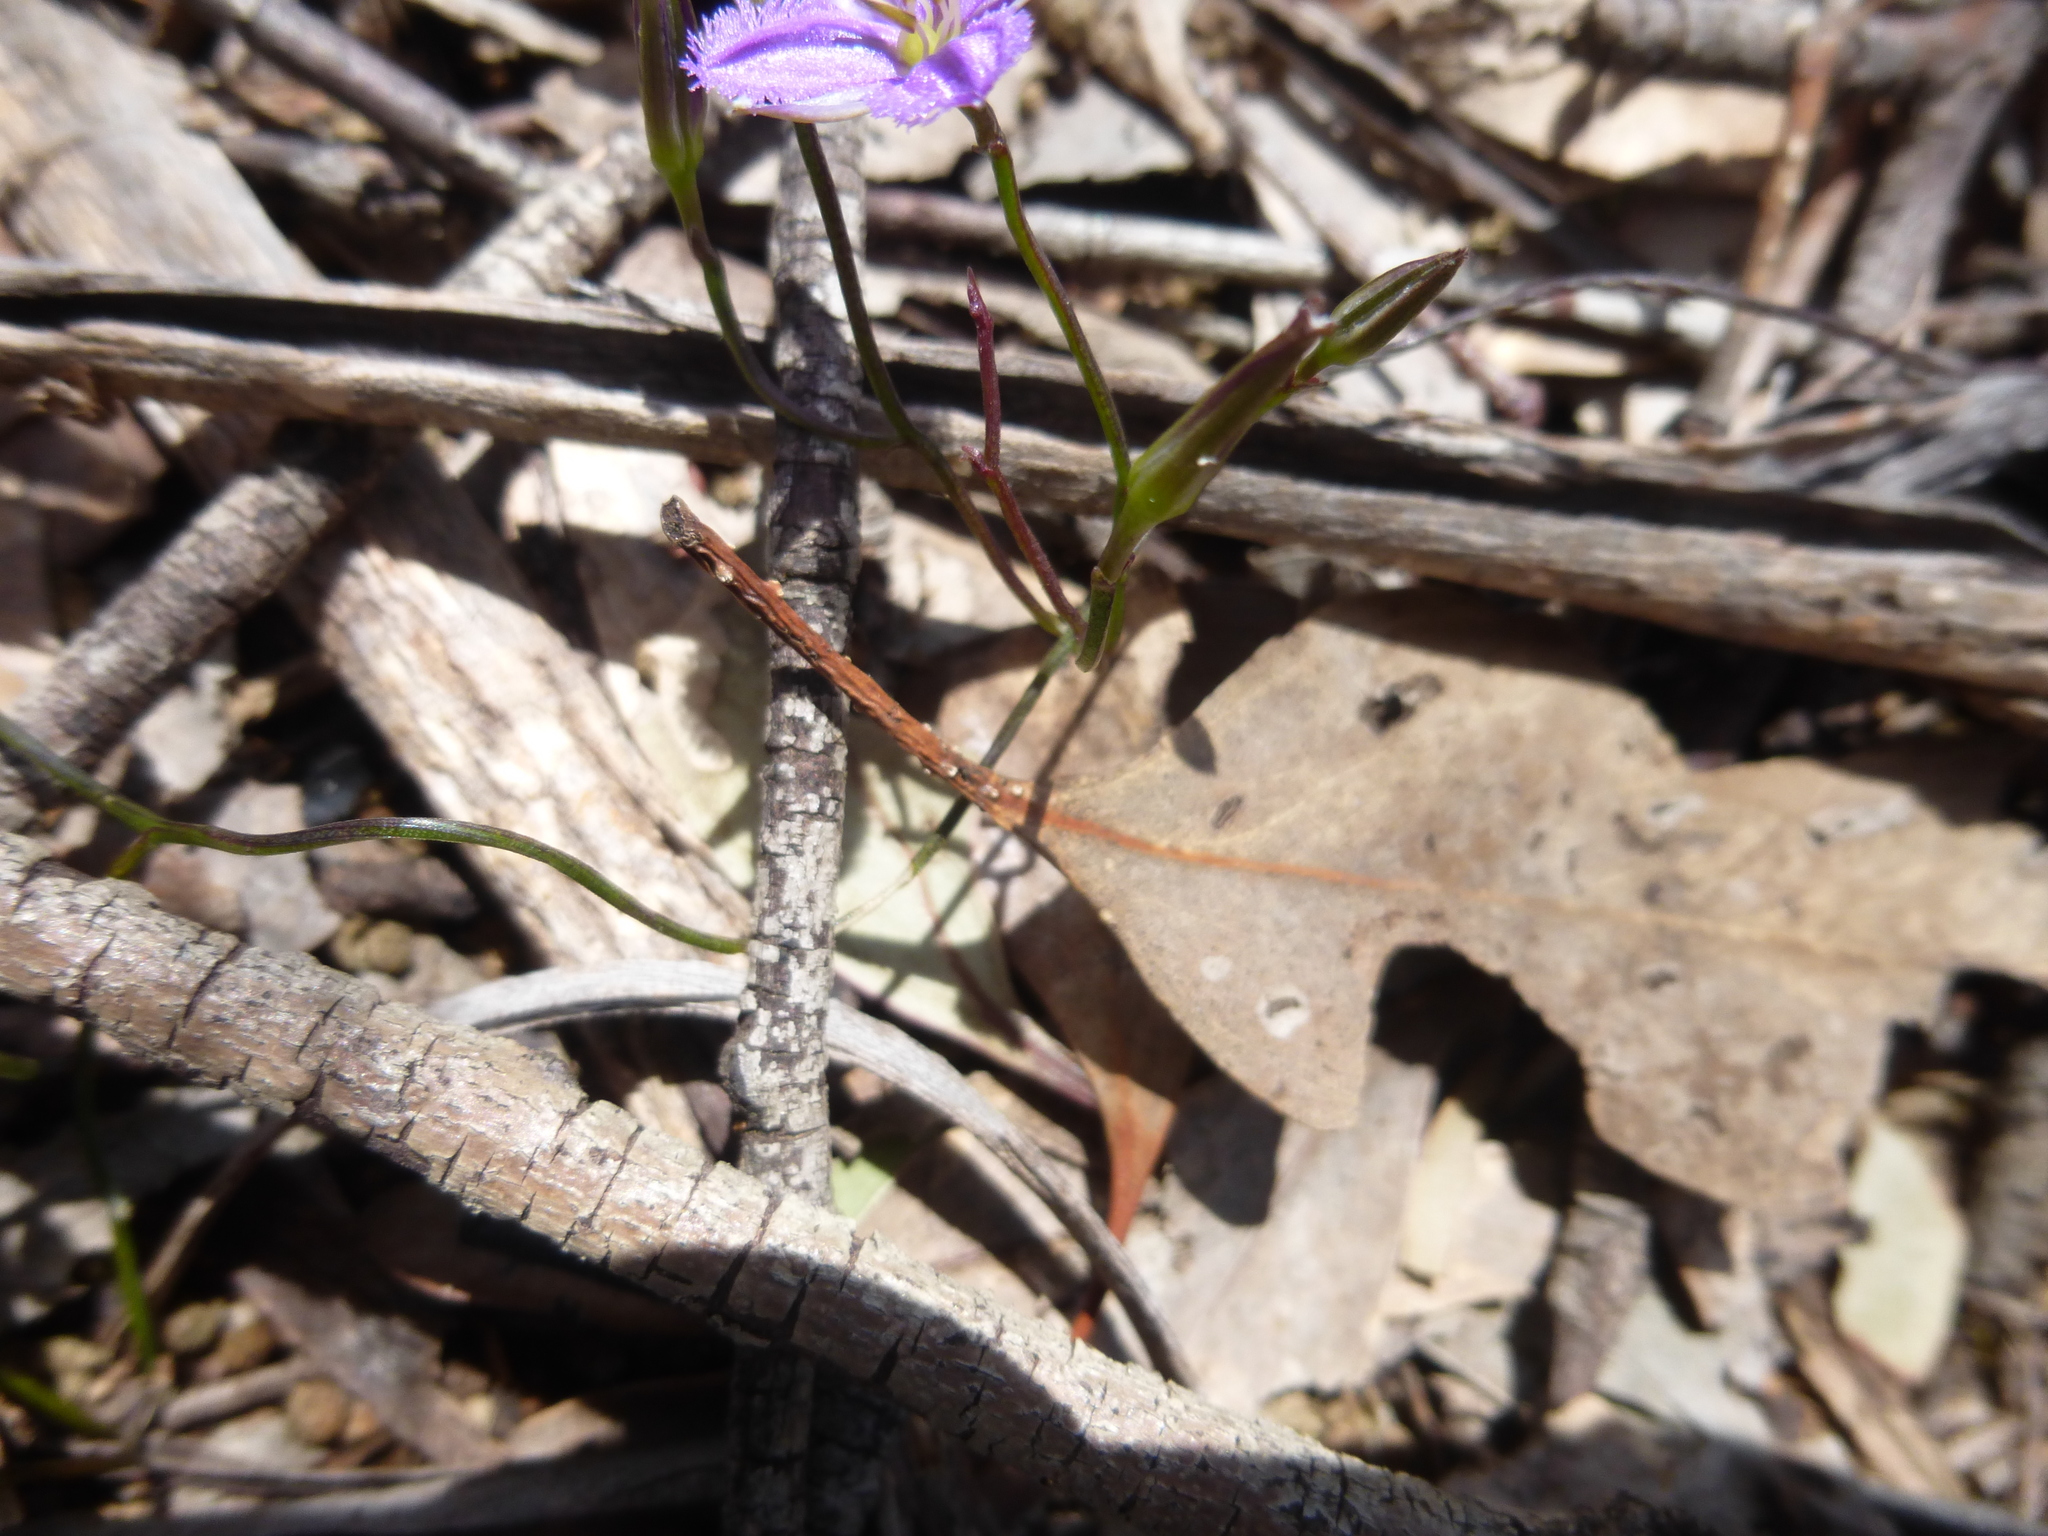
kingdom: Plantae
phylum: Tracheophyta
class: Liliopsida
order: Asparagales
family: Asparagaceae
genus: Thysanotus
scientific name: Thysanotus patersonii
